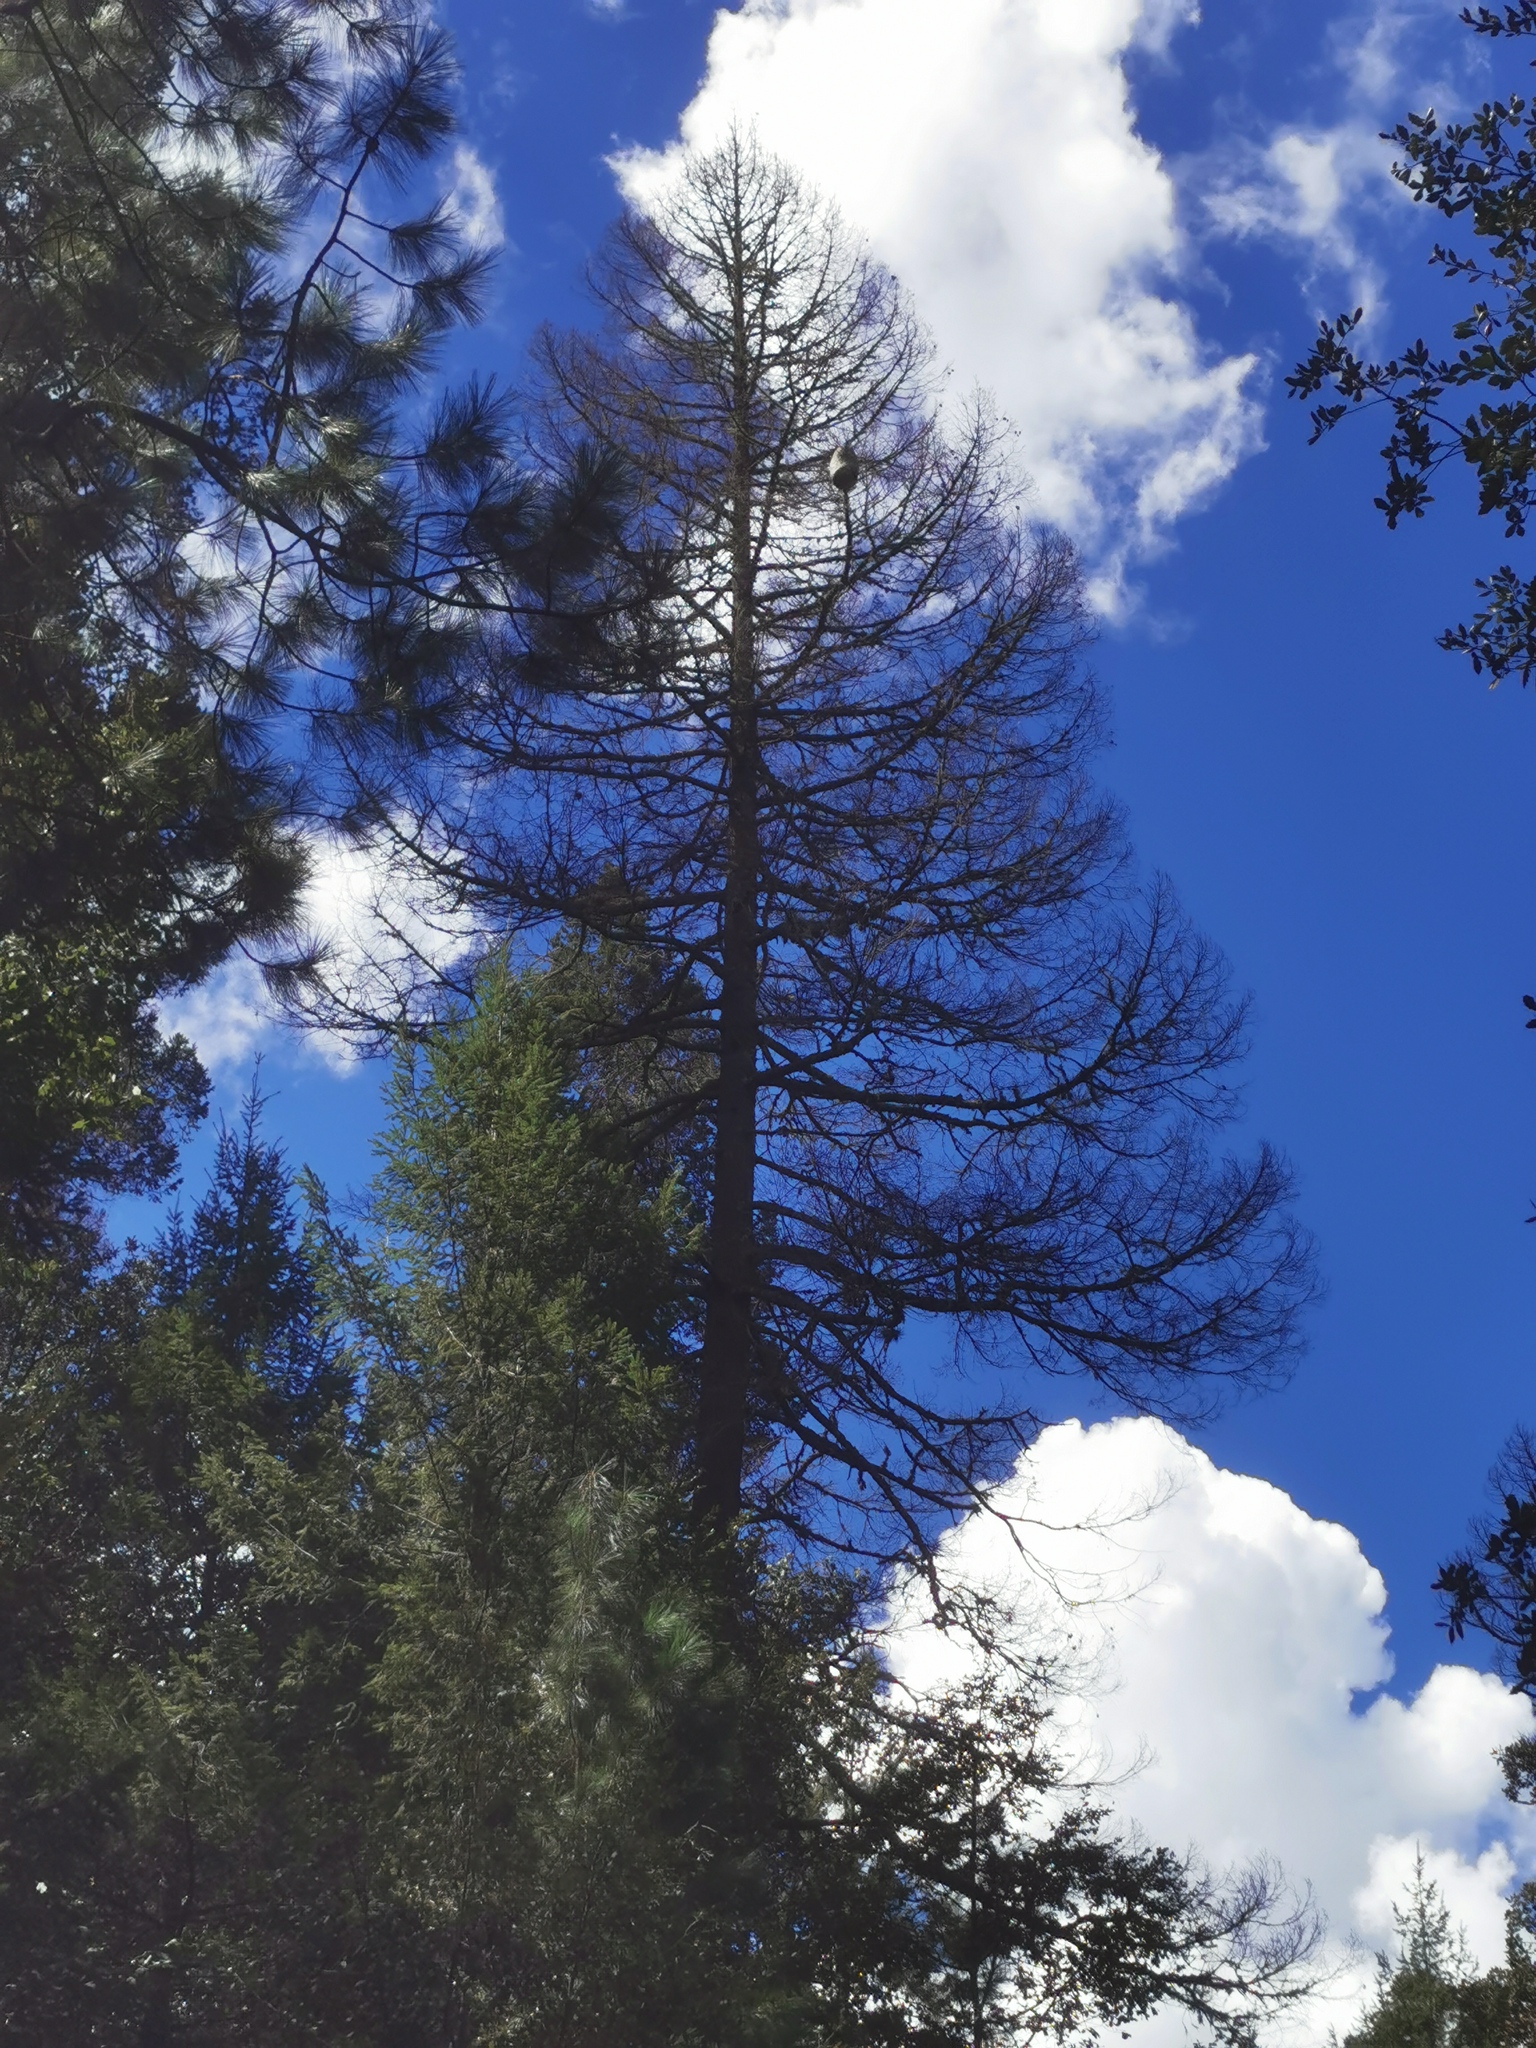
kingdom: Plantae
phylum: Tracheophyta
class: Pinopsida
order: Pinales
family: Pinaceae
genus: Pseudotsuga
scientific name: Pseudotsuga menziesii
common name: Douglas fir
